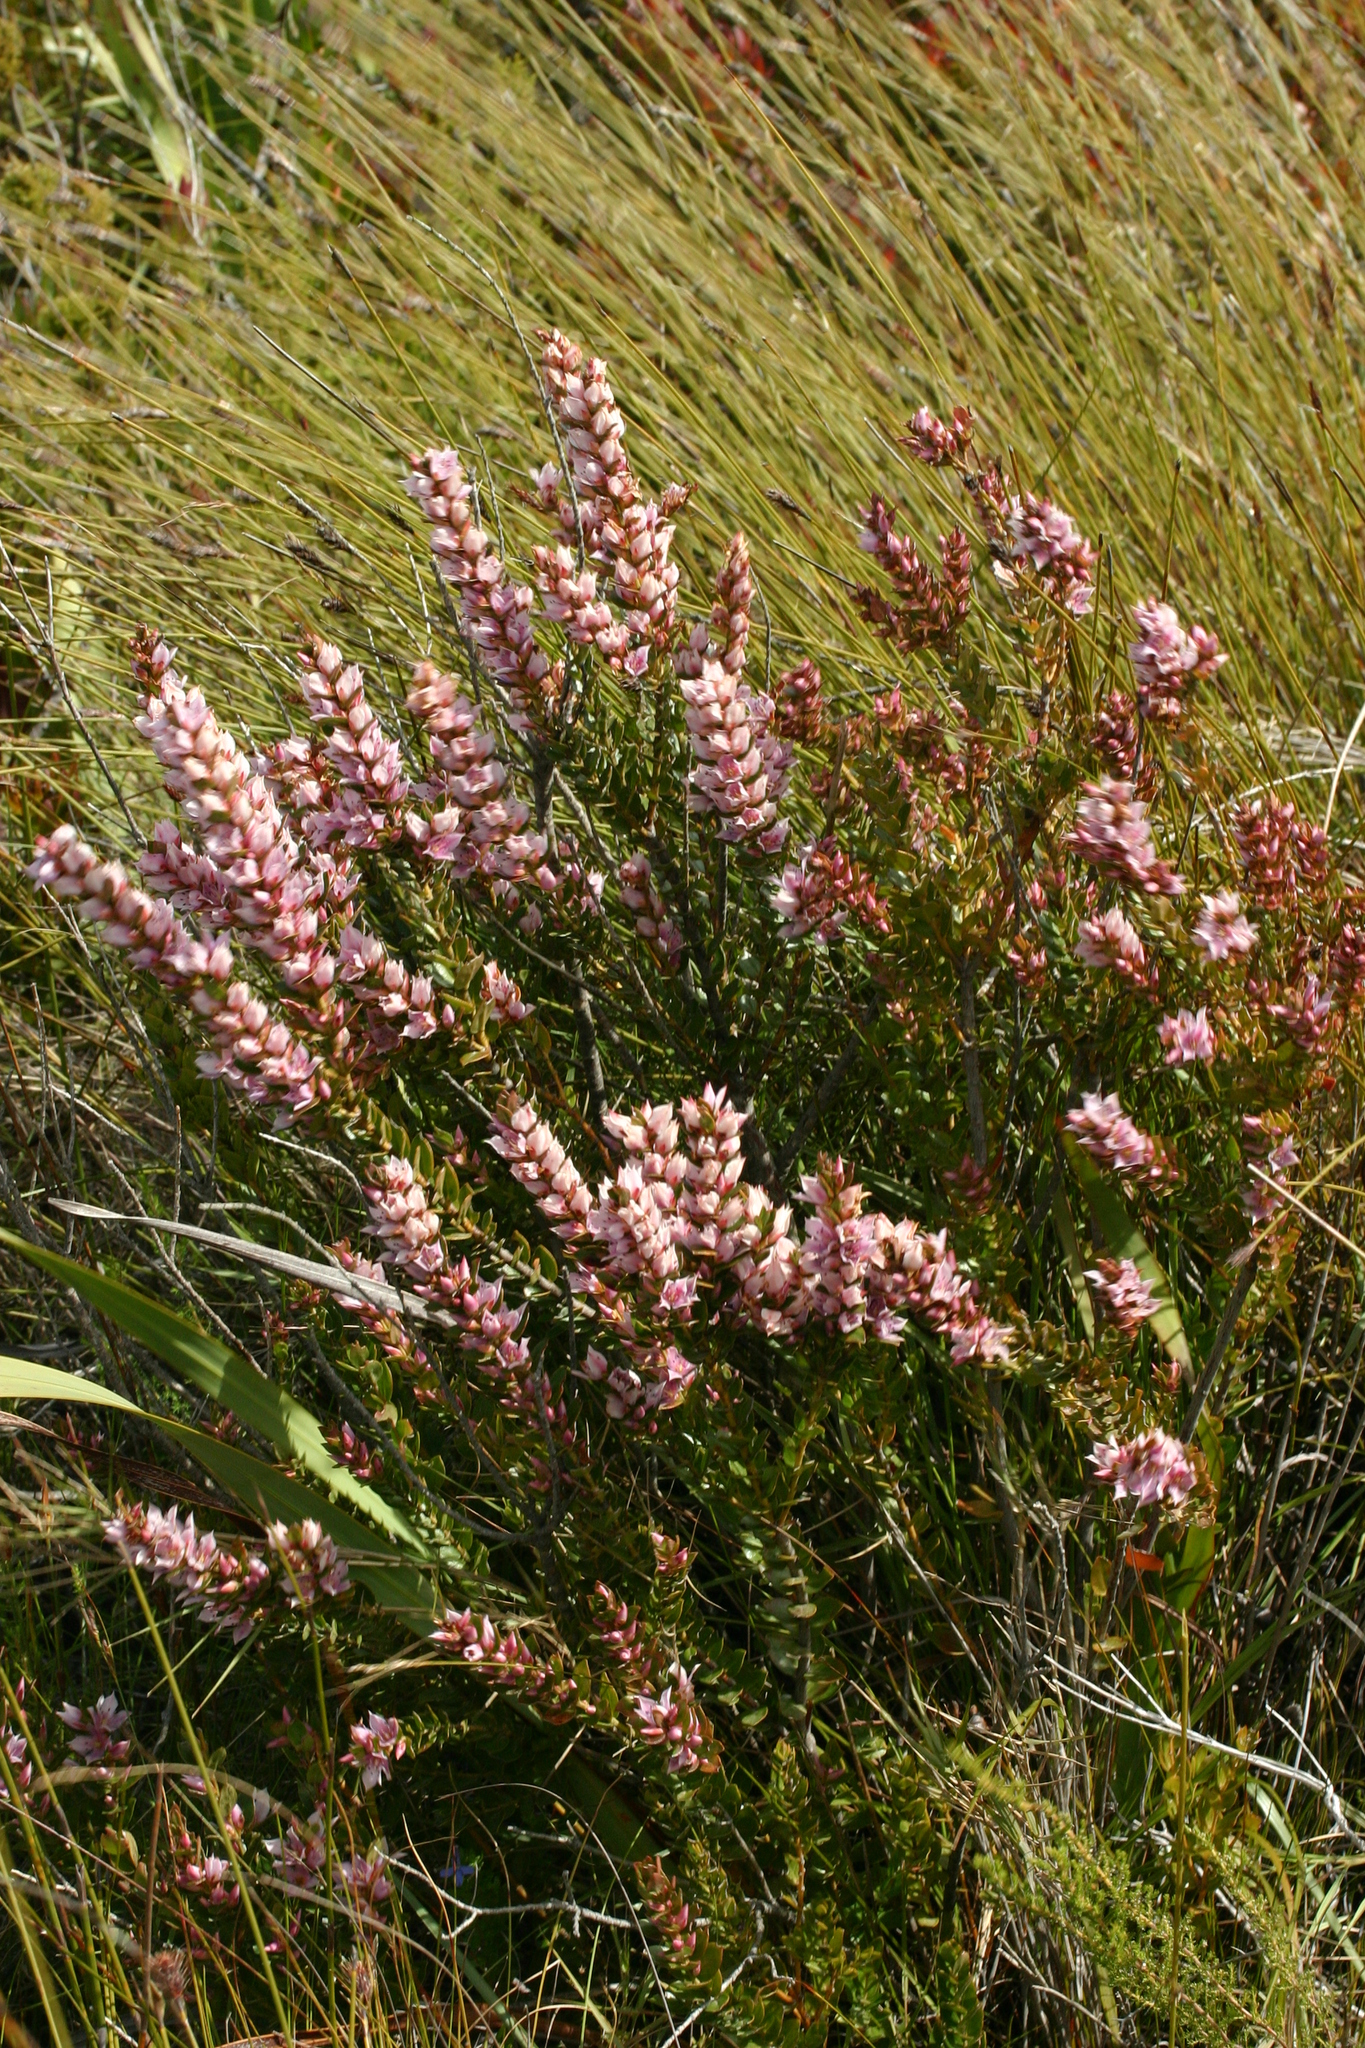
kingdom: Plantae
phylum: Tracheophyta
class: Magnoliopsida
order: Crossosomatales
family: Geissolomataceae
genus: Geissoloma
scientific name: Geissoloma marginata
